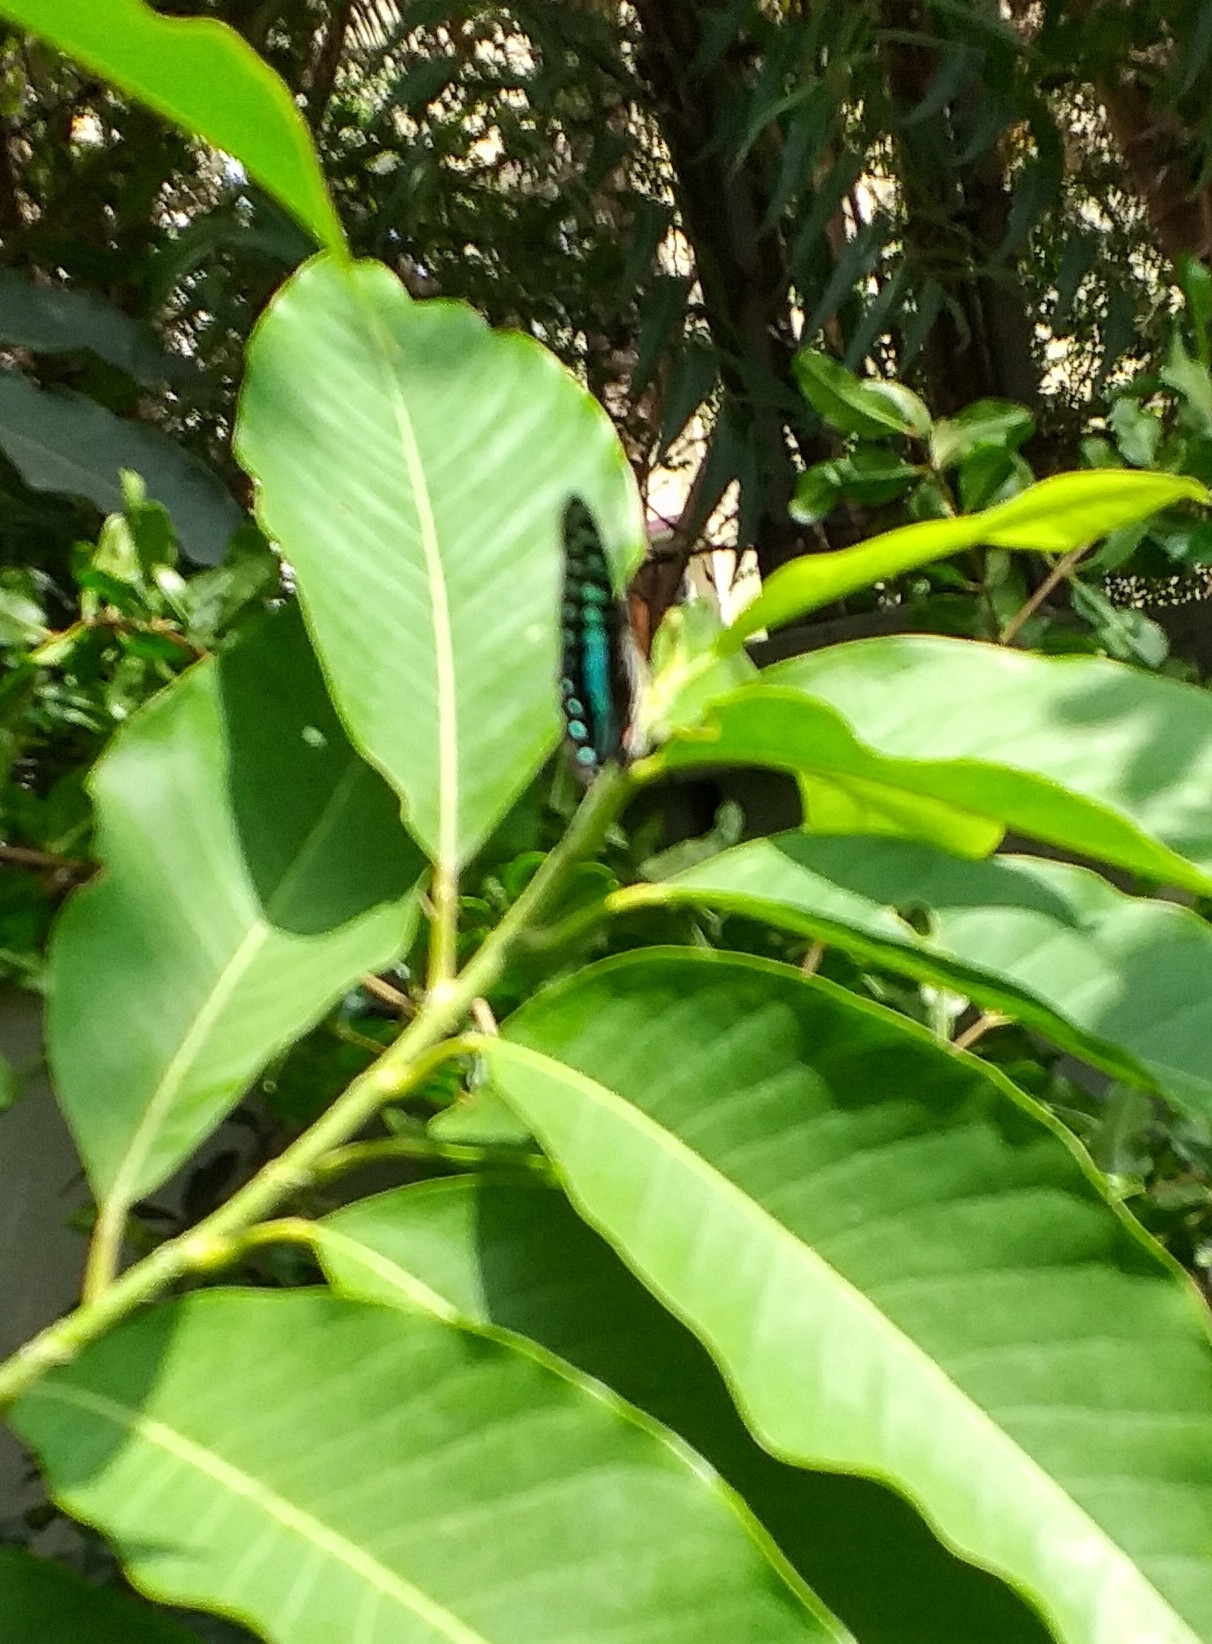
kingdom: Animalia
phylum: Arthropoda
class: Insecta
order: Lepidoptera
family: Papilionidae
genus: Graphium
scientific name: Graphium doson
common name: Common jay
